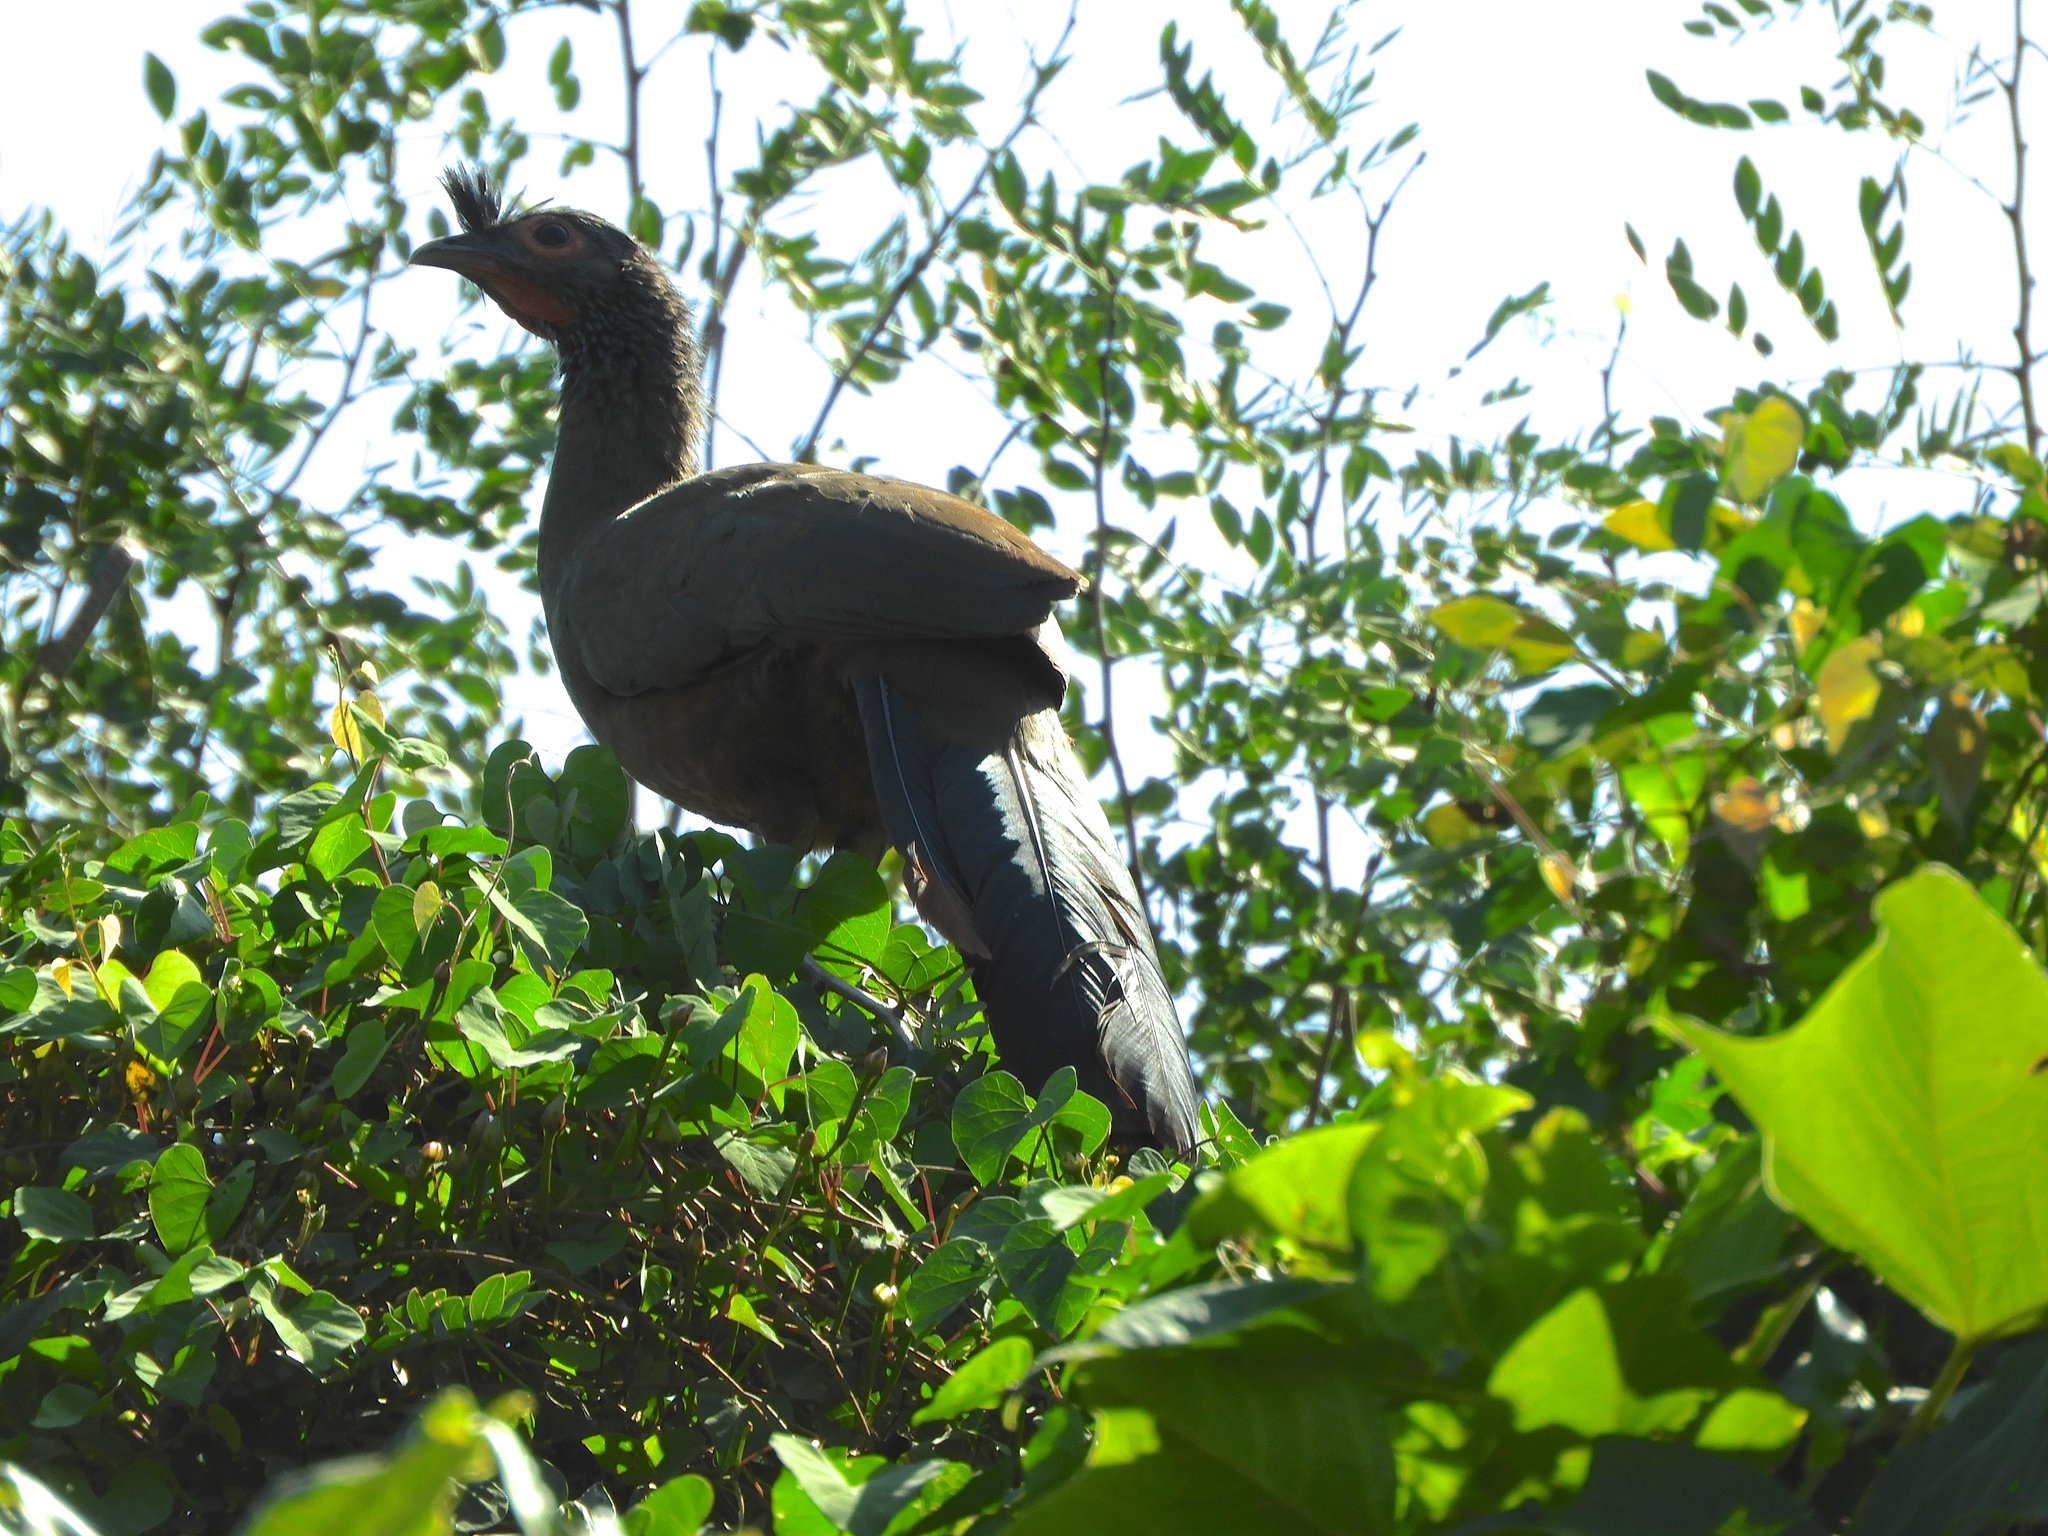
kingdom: Animalia
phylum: Chordata
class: Aves
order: Galliformes
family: Cracidae
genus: Ortalis
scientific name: Ortalis wagleri
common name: Rufous-bellied chachalaca
